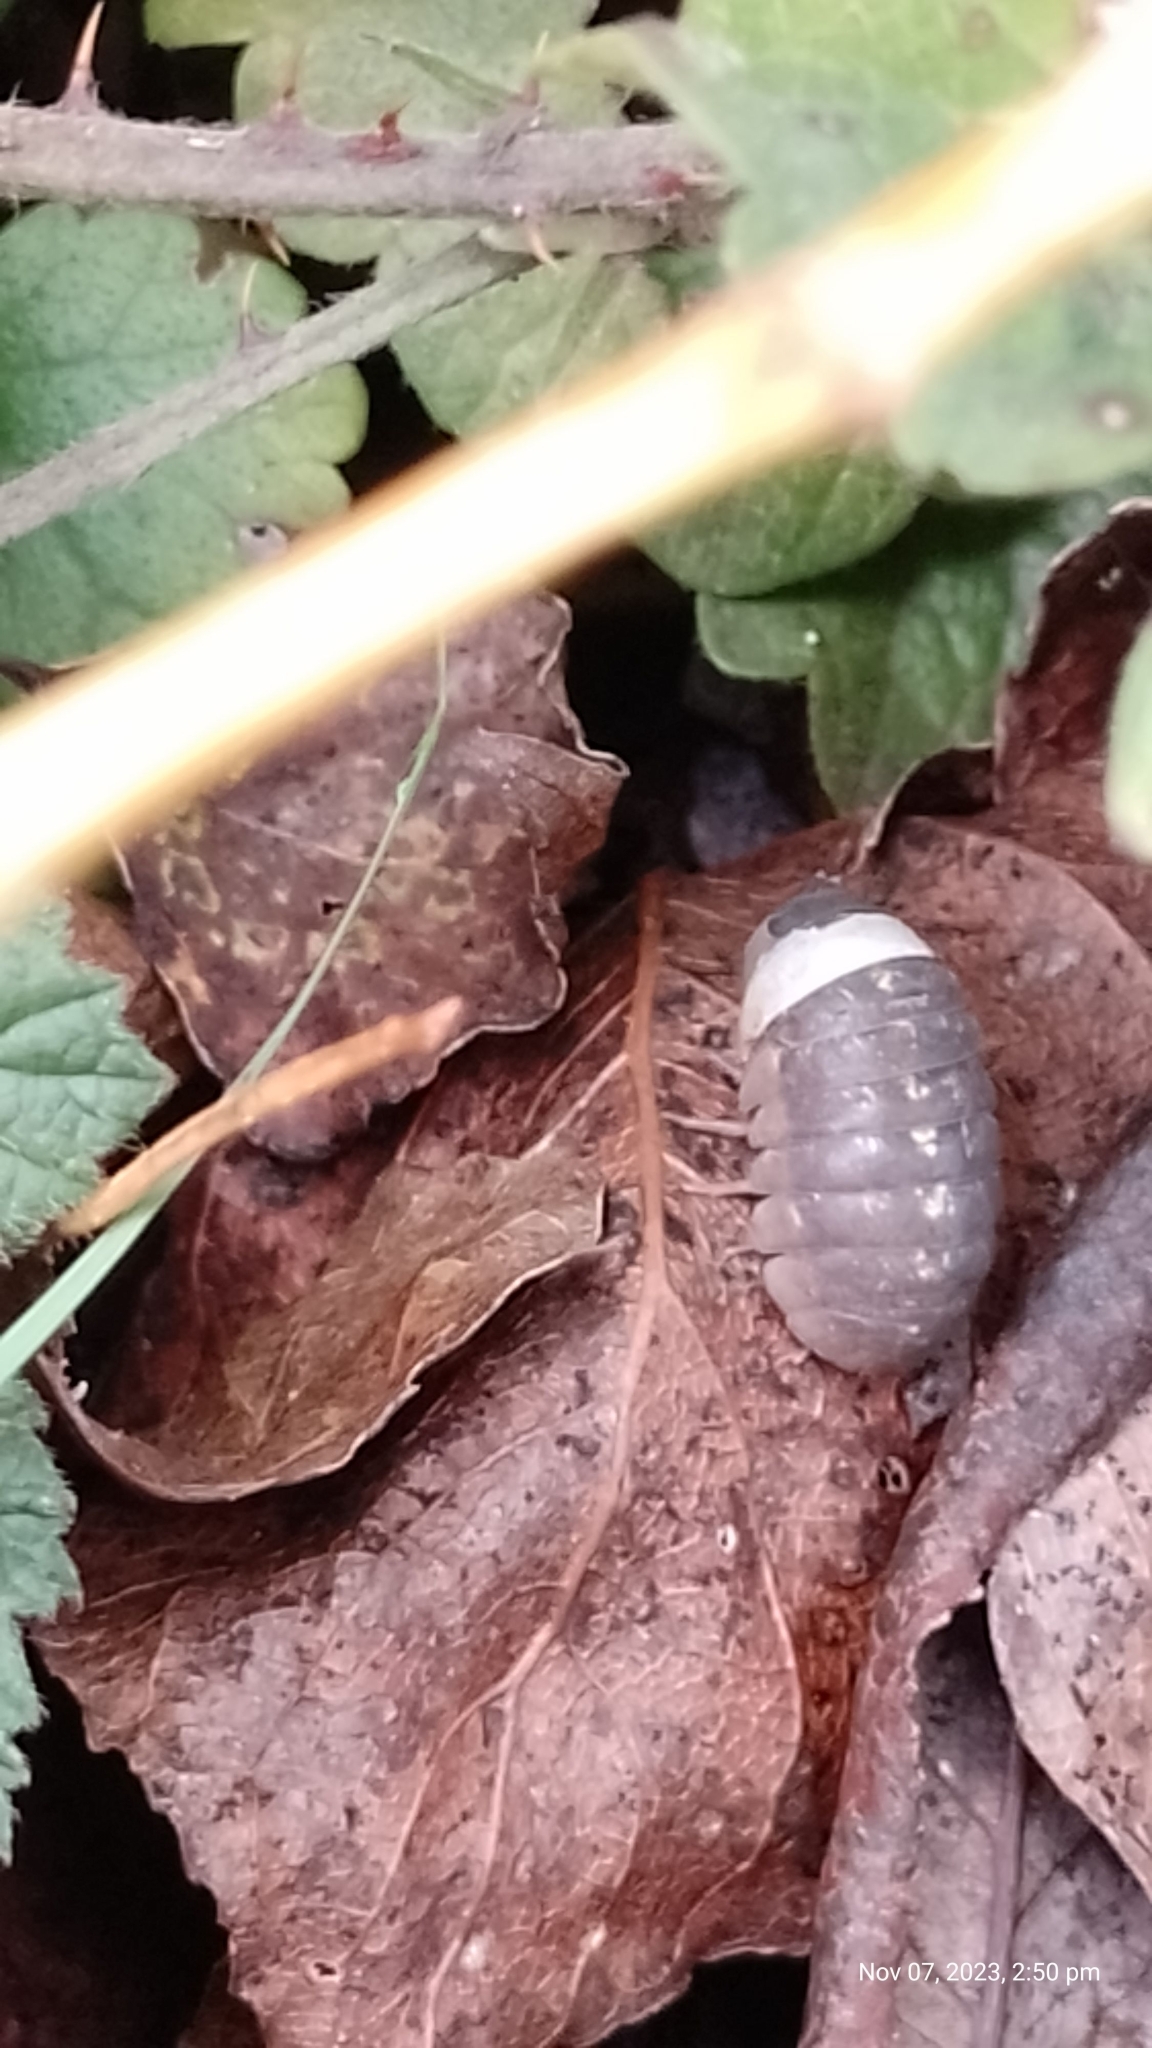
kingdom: Animalia
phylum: Arthropoda
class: Malacostraca
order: Isopoda
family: Armadillidiidae
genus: Armadillidium
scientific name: Armadillidium vulgare
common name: Common pill woodlouse
